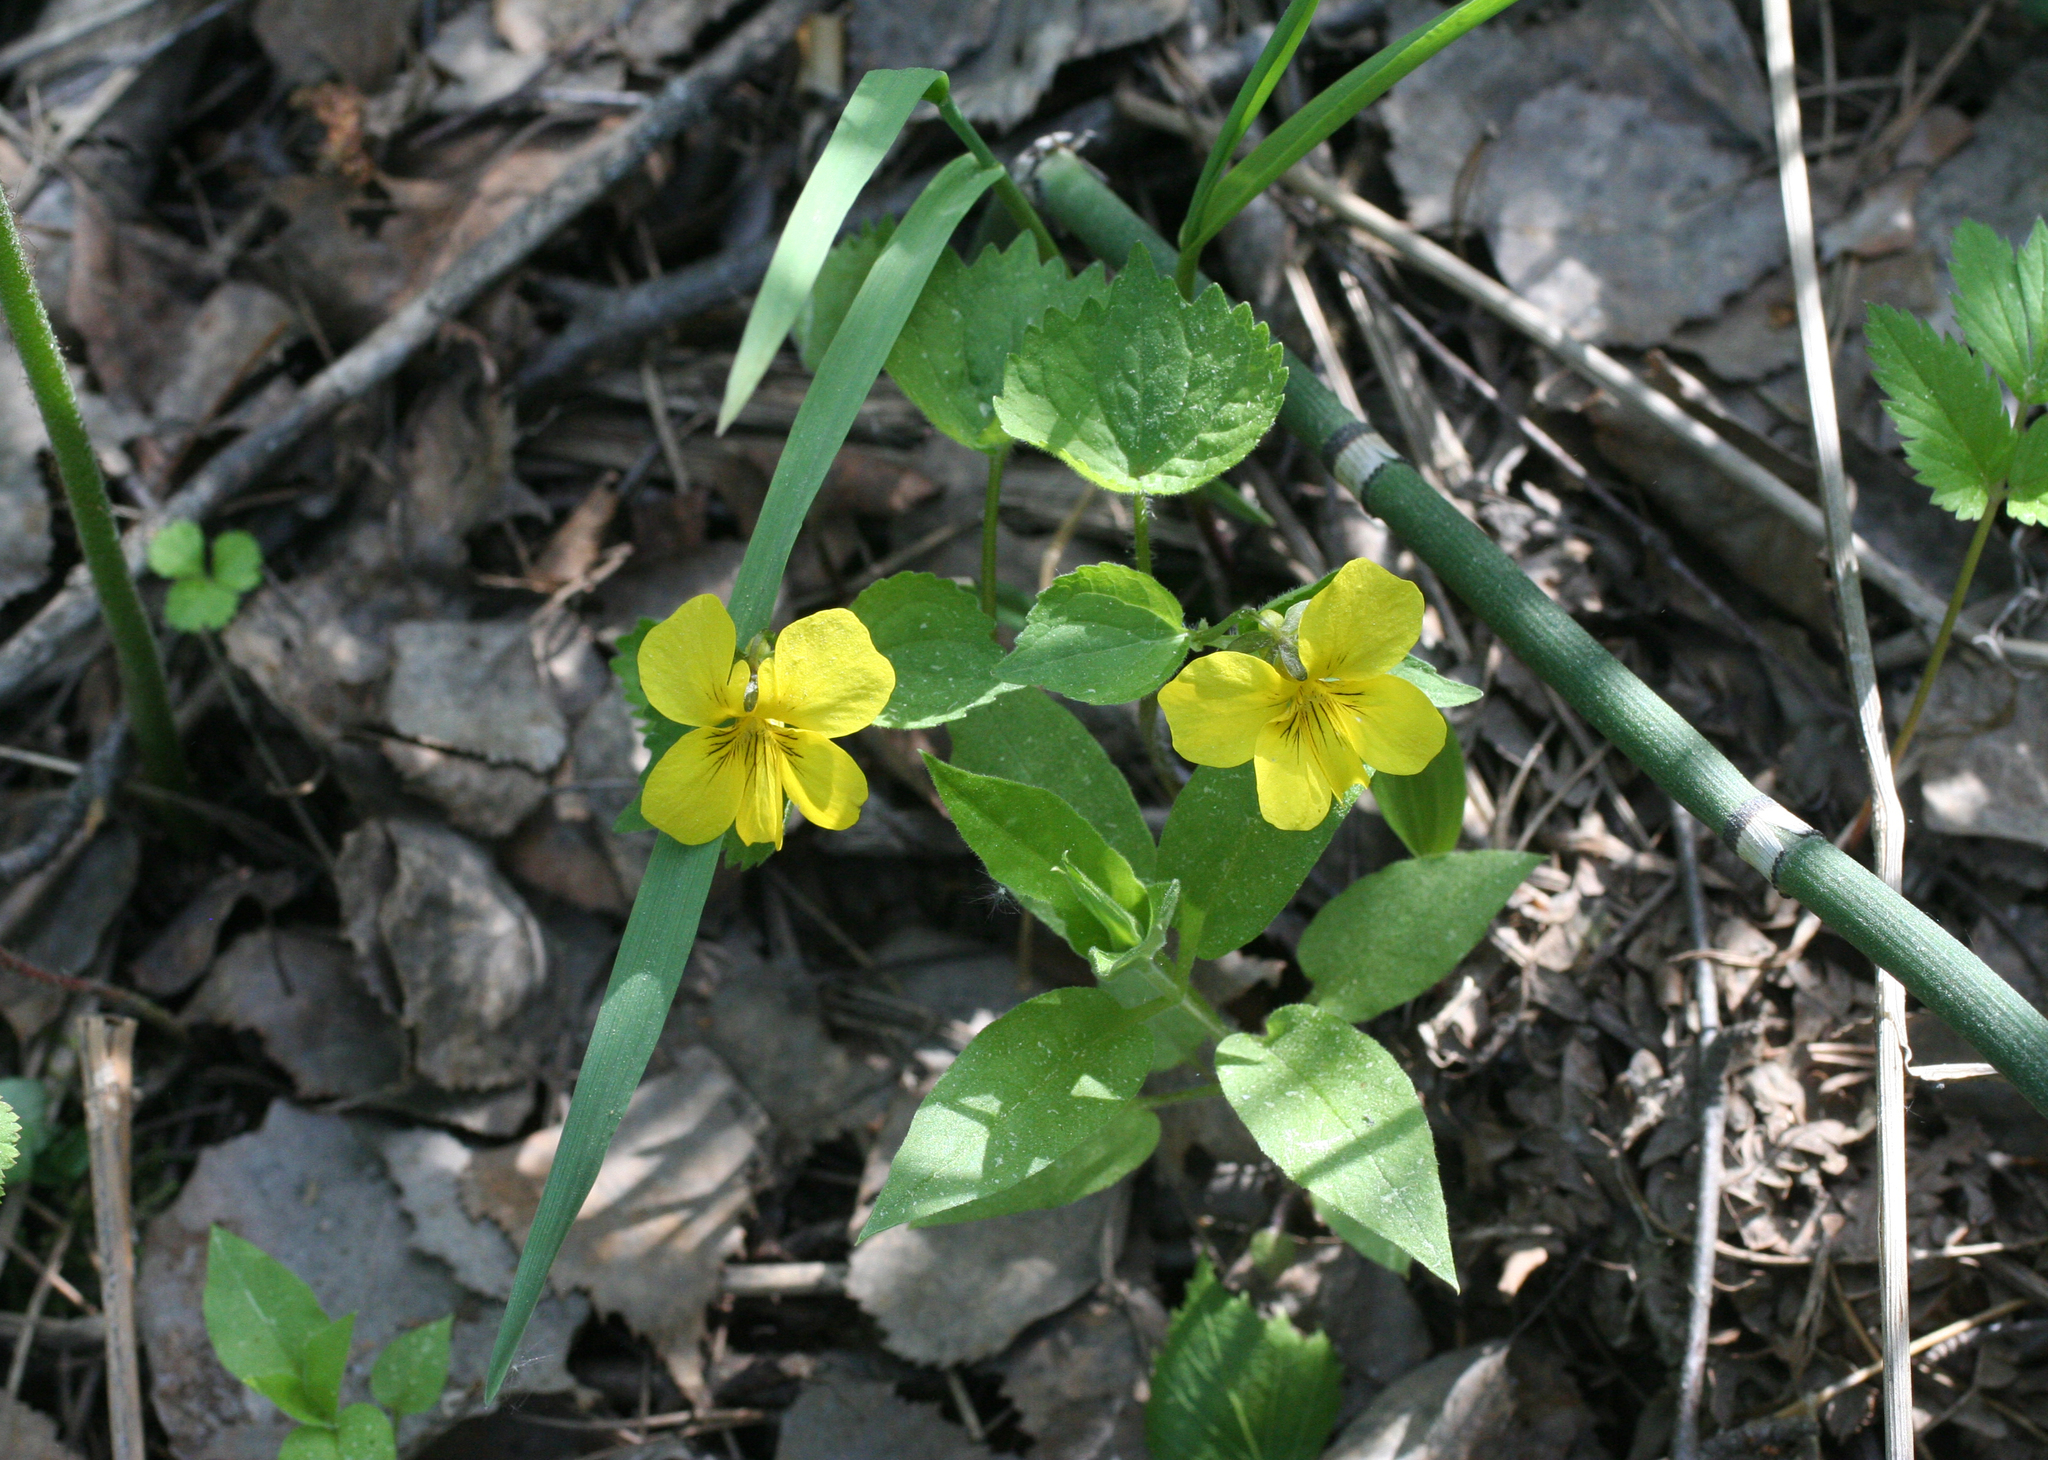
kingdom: Plantae
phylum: Tracheophyta
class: Magnoliopsida
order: Malpighiales
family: Violaceae
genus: Viola
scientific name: Viola uniflora
